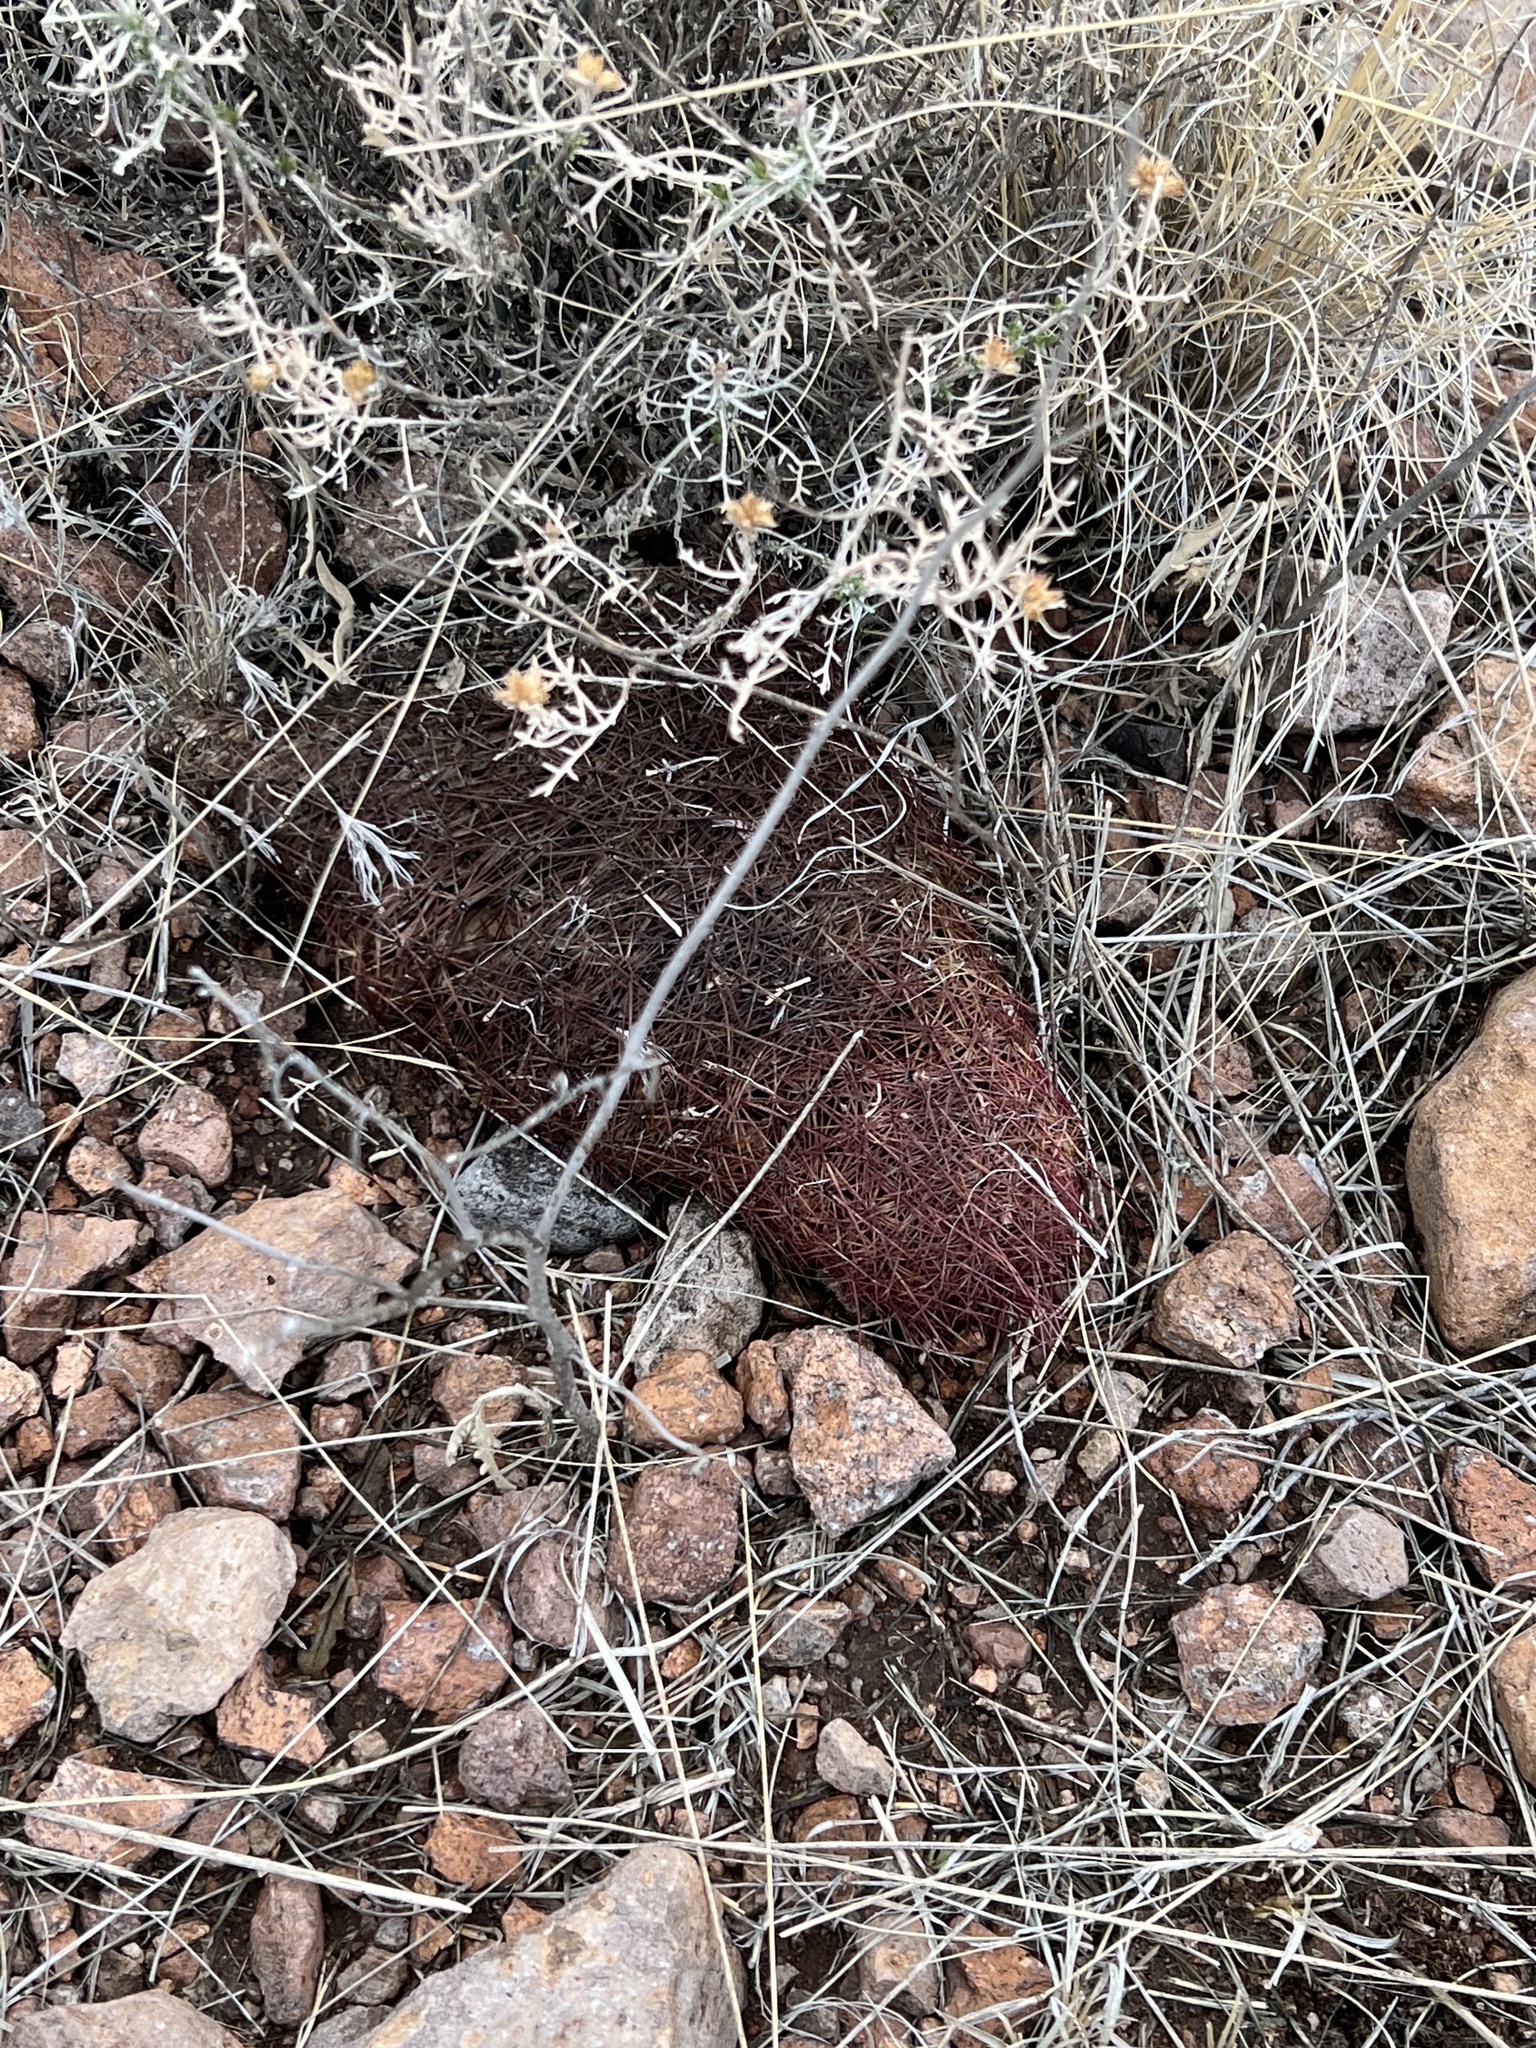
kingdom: Plantae
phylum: Tracheophyta
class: Magnoliopsida
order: Caryophyllales
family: Cactaceae
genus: Sclerocactus
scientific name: Sclerocactus johnsonii
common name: Eight-spine fishhook cactus
